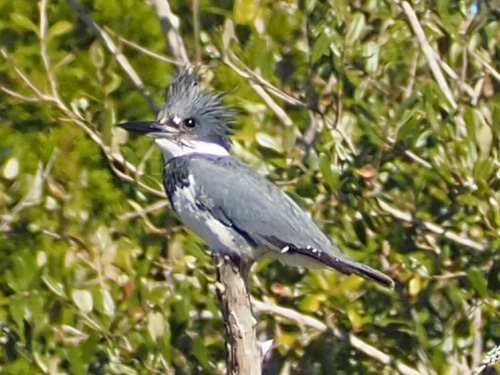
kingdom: Animalia
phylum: Chordata
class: Aves
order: Coraciiformes
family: Alcedinidae
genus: Megaceryle
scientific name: Megaceryle alcyon
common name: Belted kingfisher
